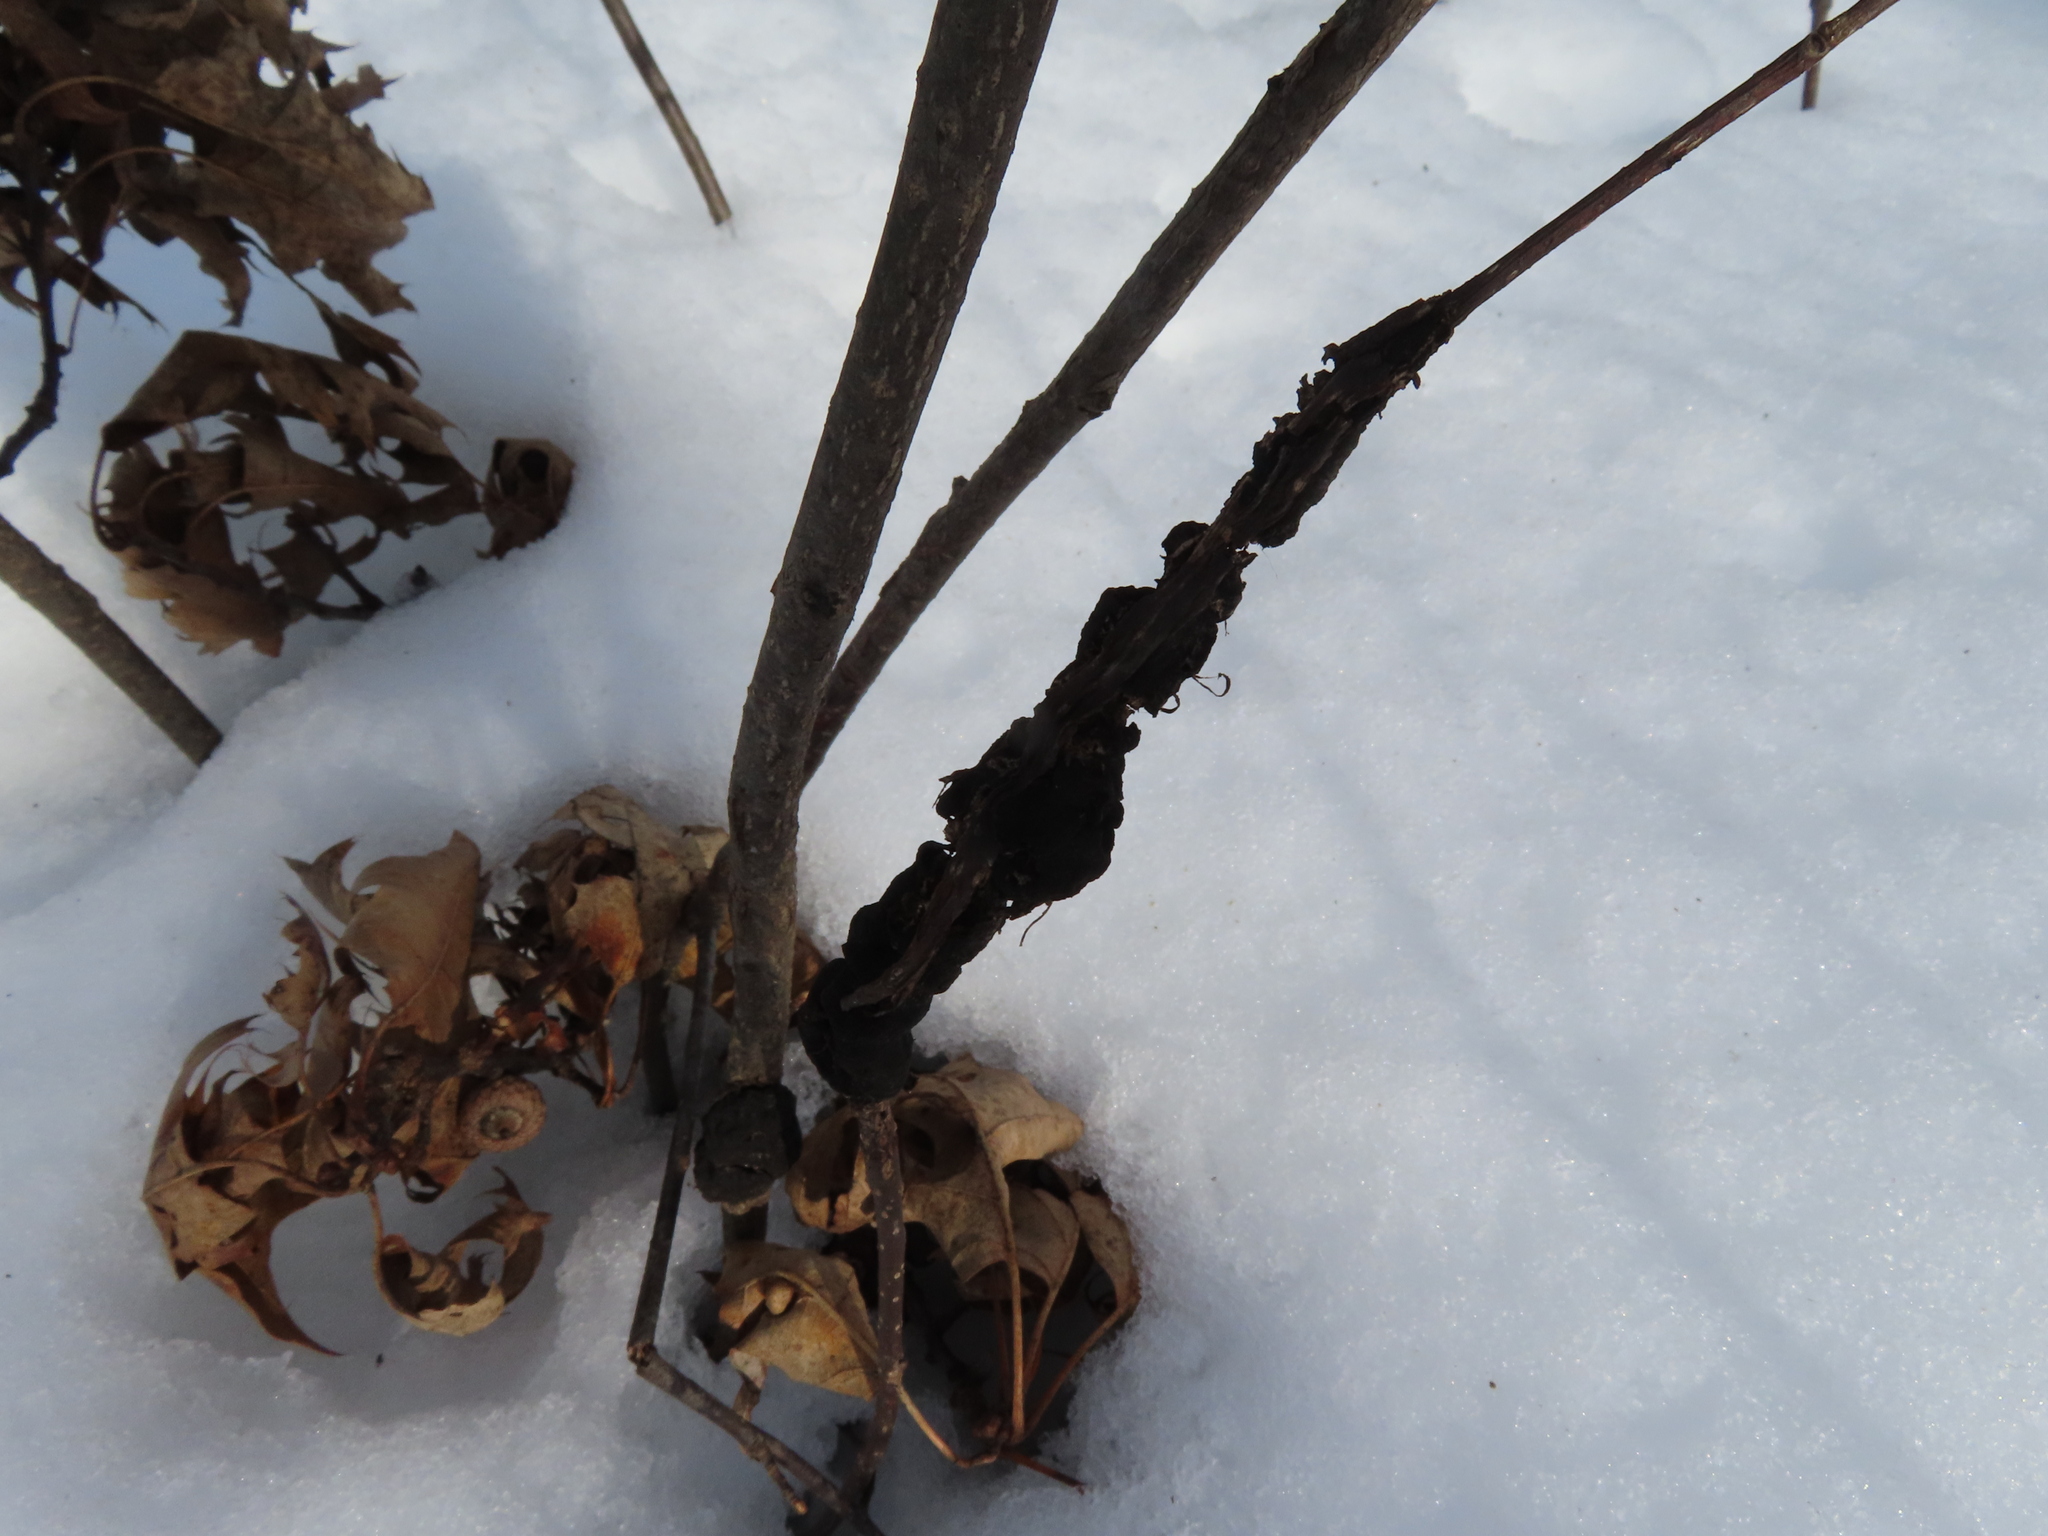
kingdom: Fungi
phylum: Ascomycota
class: Dothideomycetes
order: Venturiales
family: Venturiaceae
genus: Apiosporina
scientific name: Apiosporina morbosa
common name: Black knot
